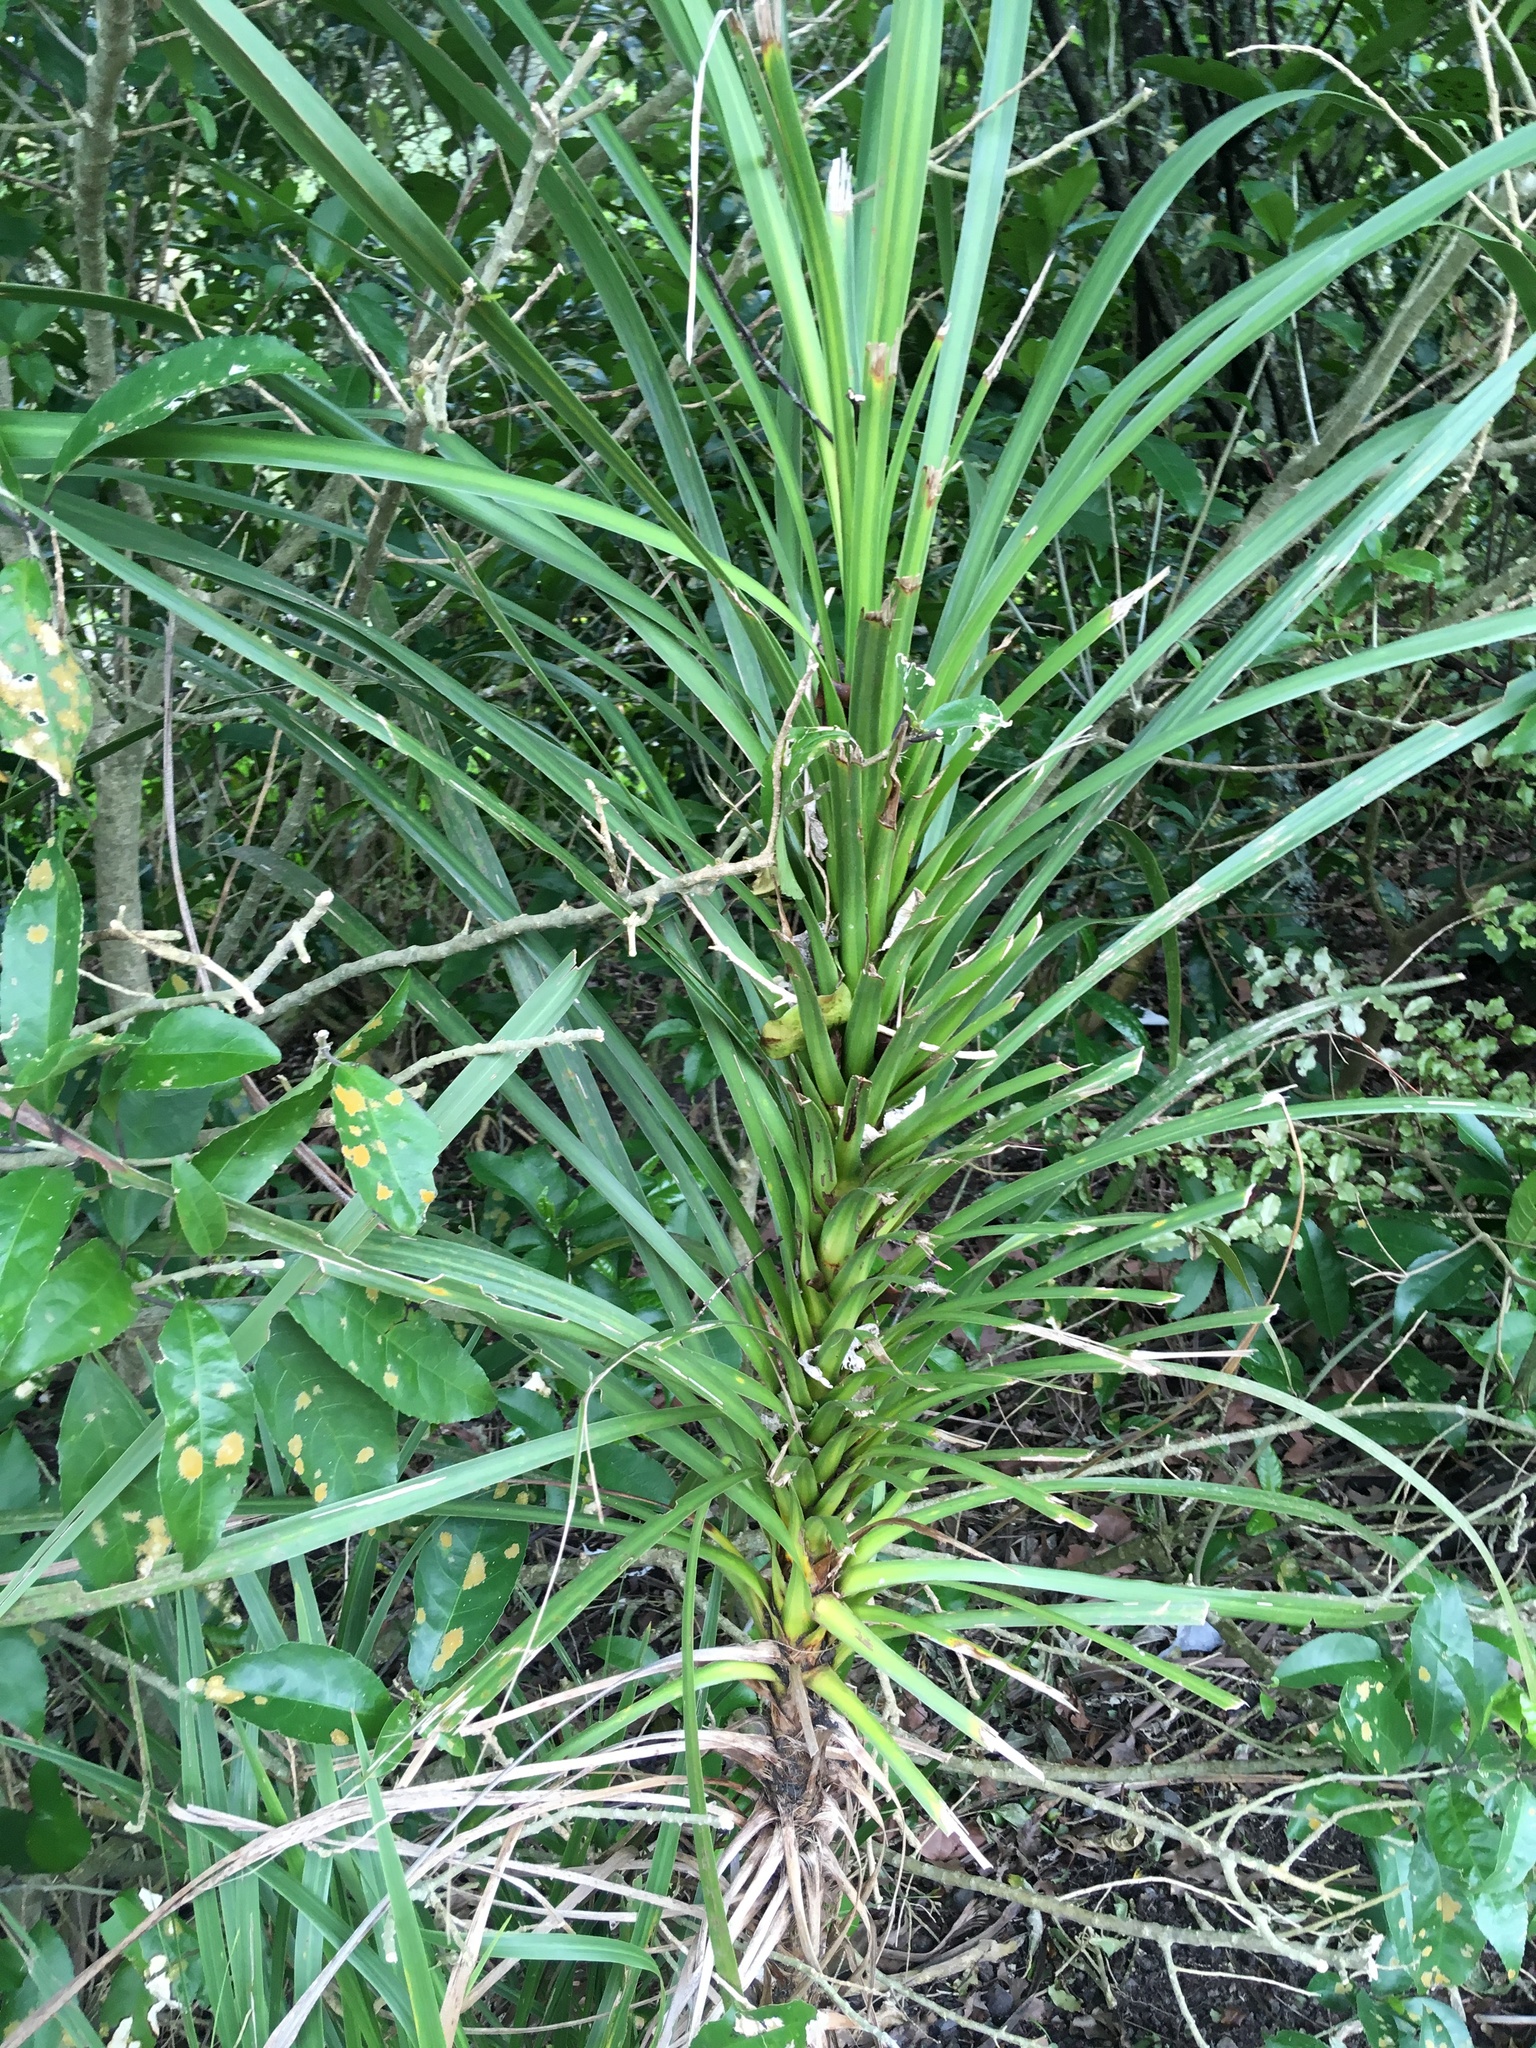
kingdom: Plantae
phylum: Tracheophyta
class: Liliopsida
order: Asparagales
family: Asparagaceae
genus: Cordyline
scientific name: Cordyline australis
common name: Cabbage-palm
